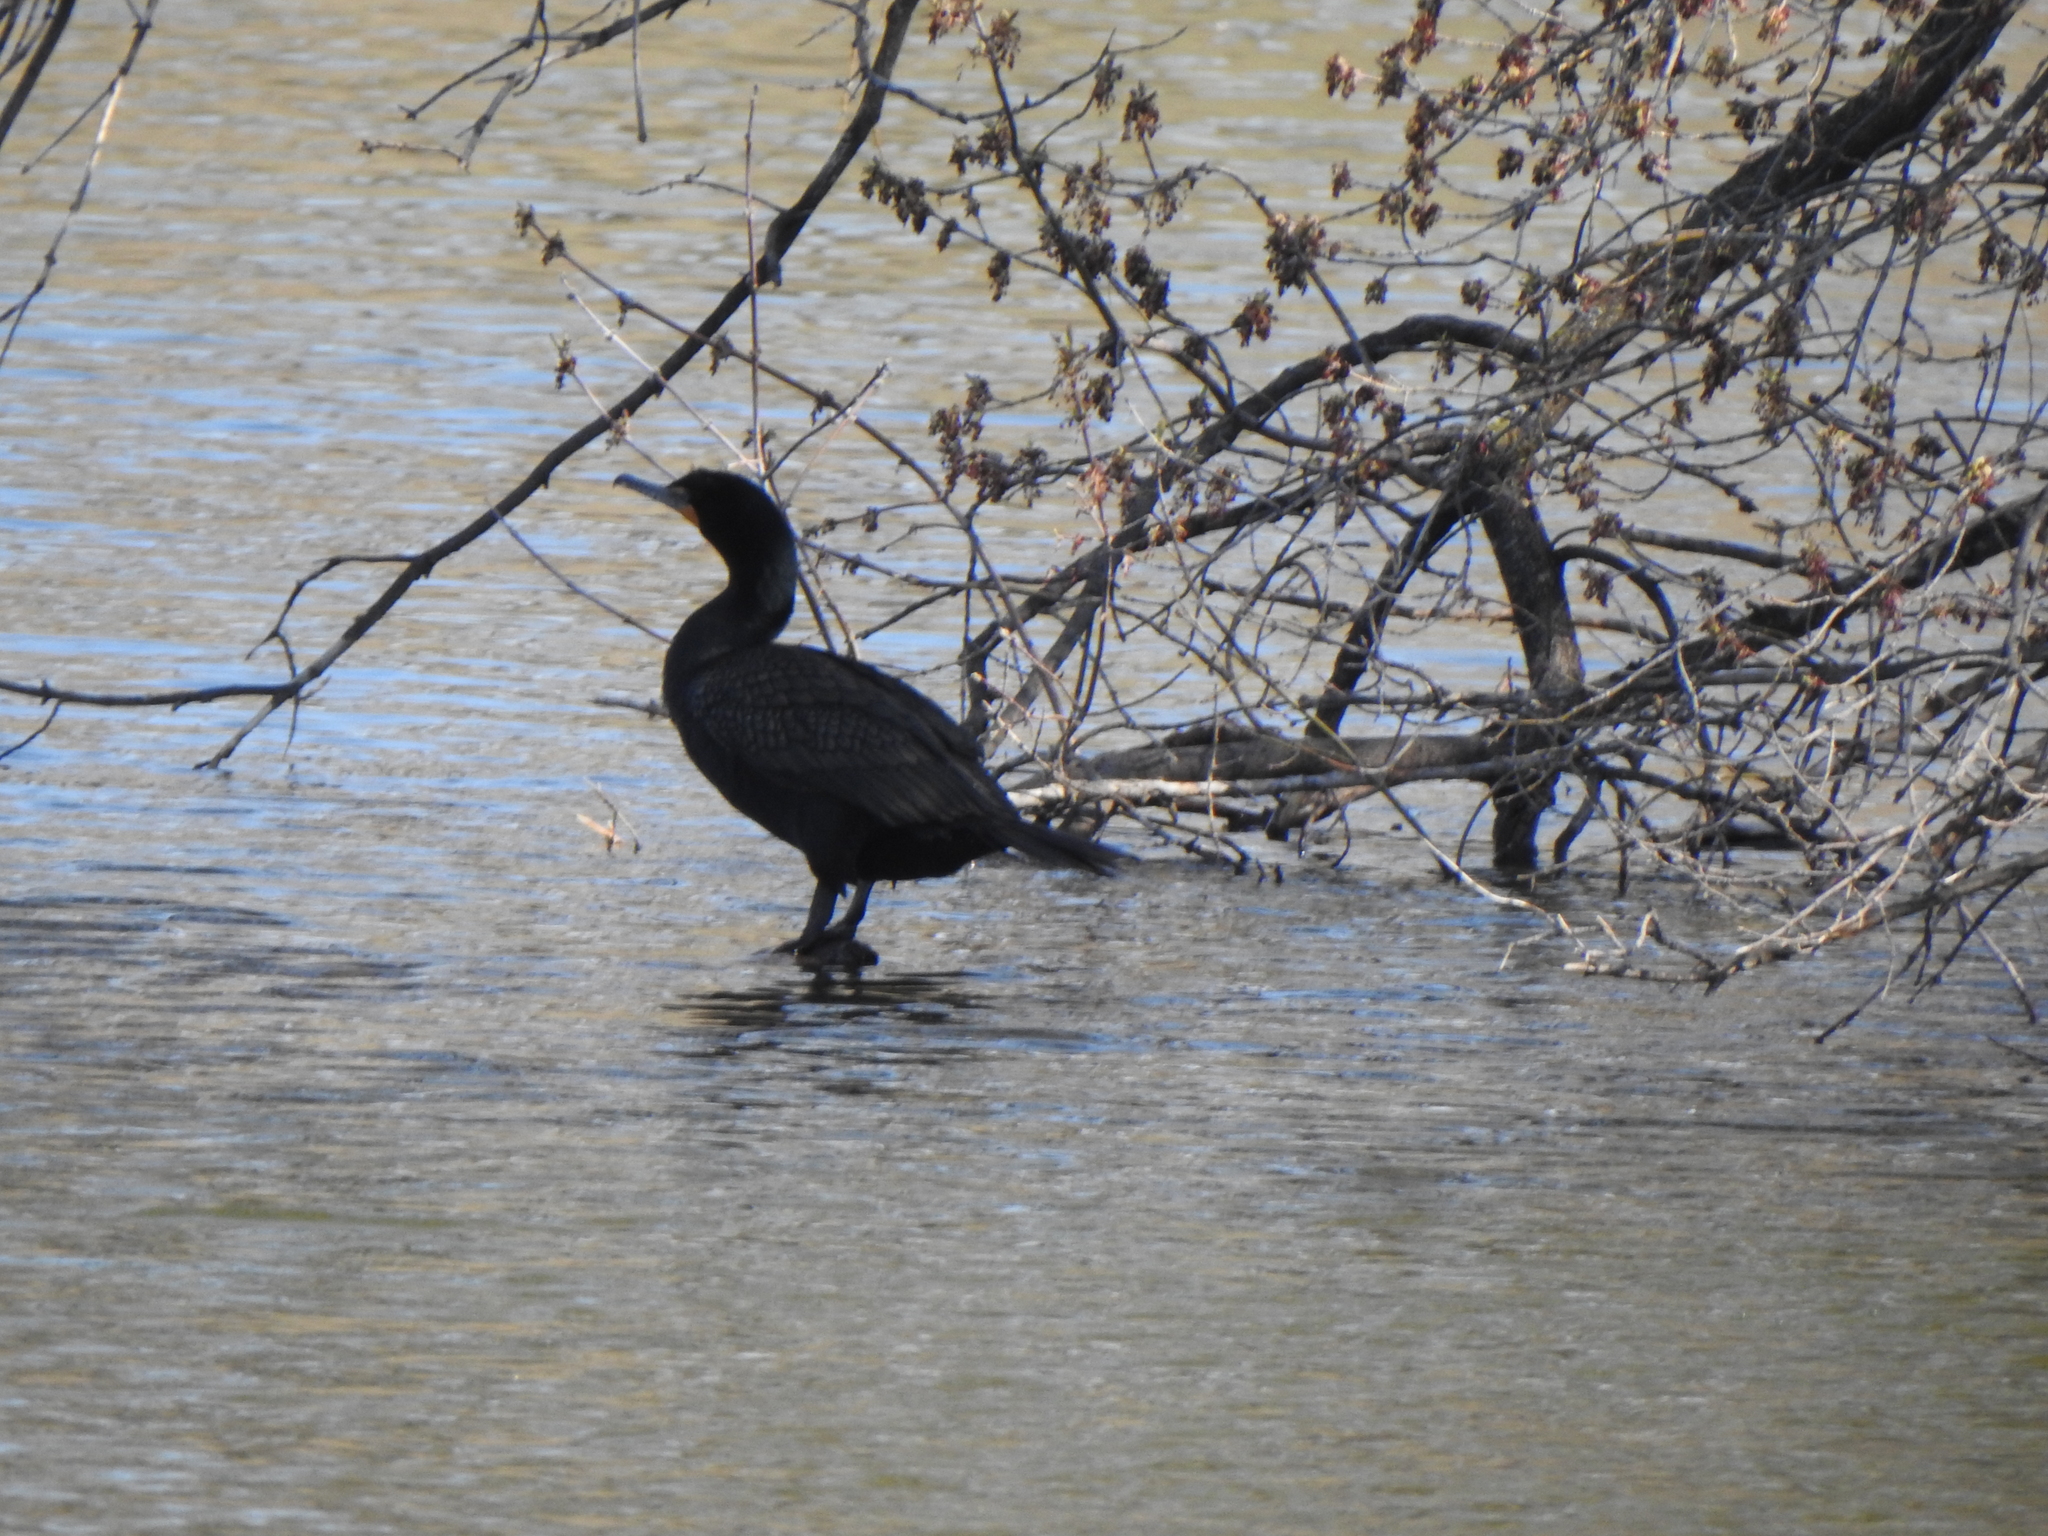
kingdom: Animalia
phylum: Chordata
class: Aves
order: Suliformes
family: Phalacrocoracidae
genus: Phalacrocorax
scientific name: Phalacrocorax auritus
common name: Double-crested cormorant
